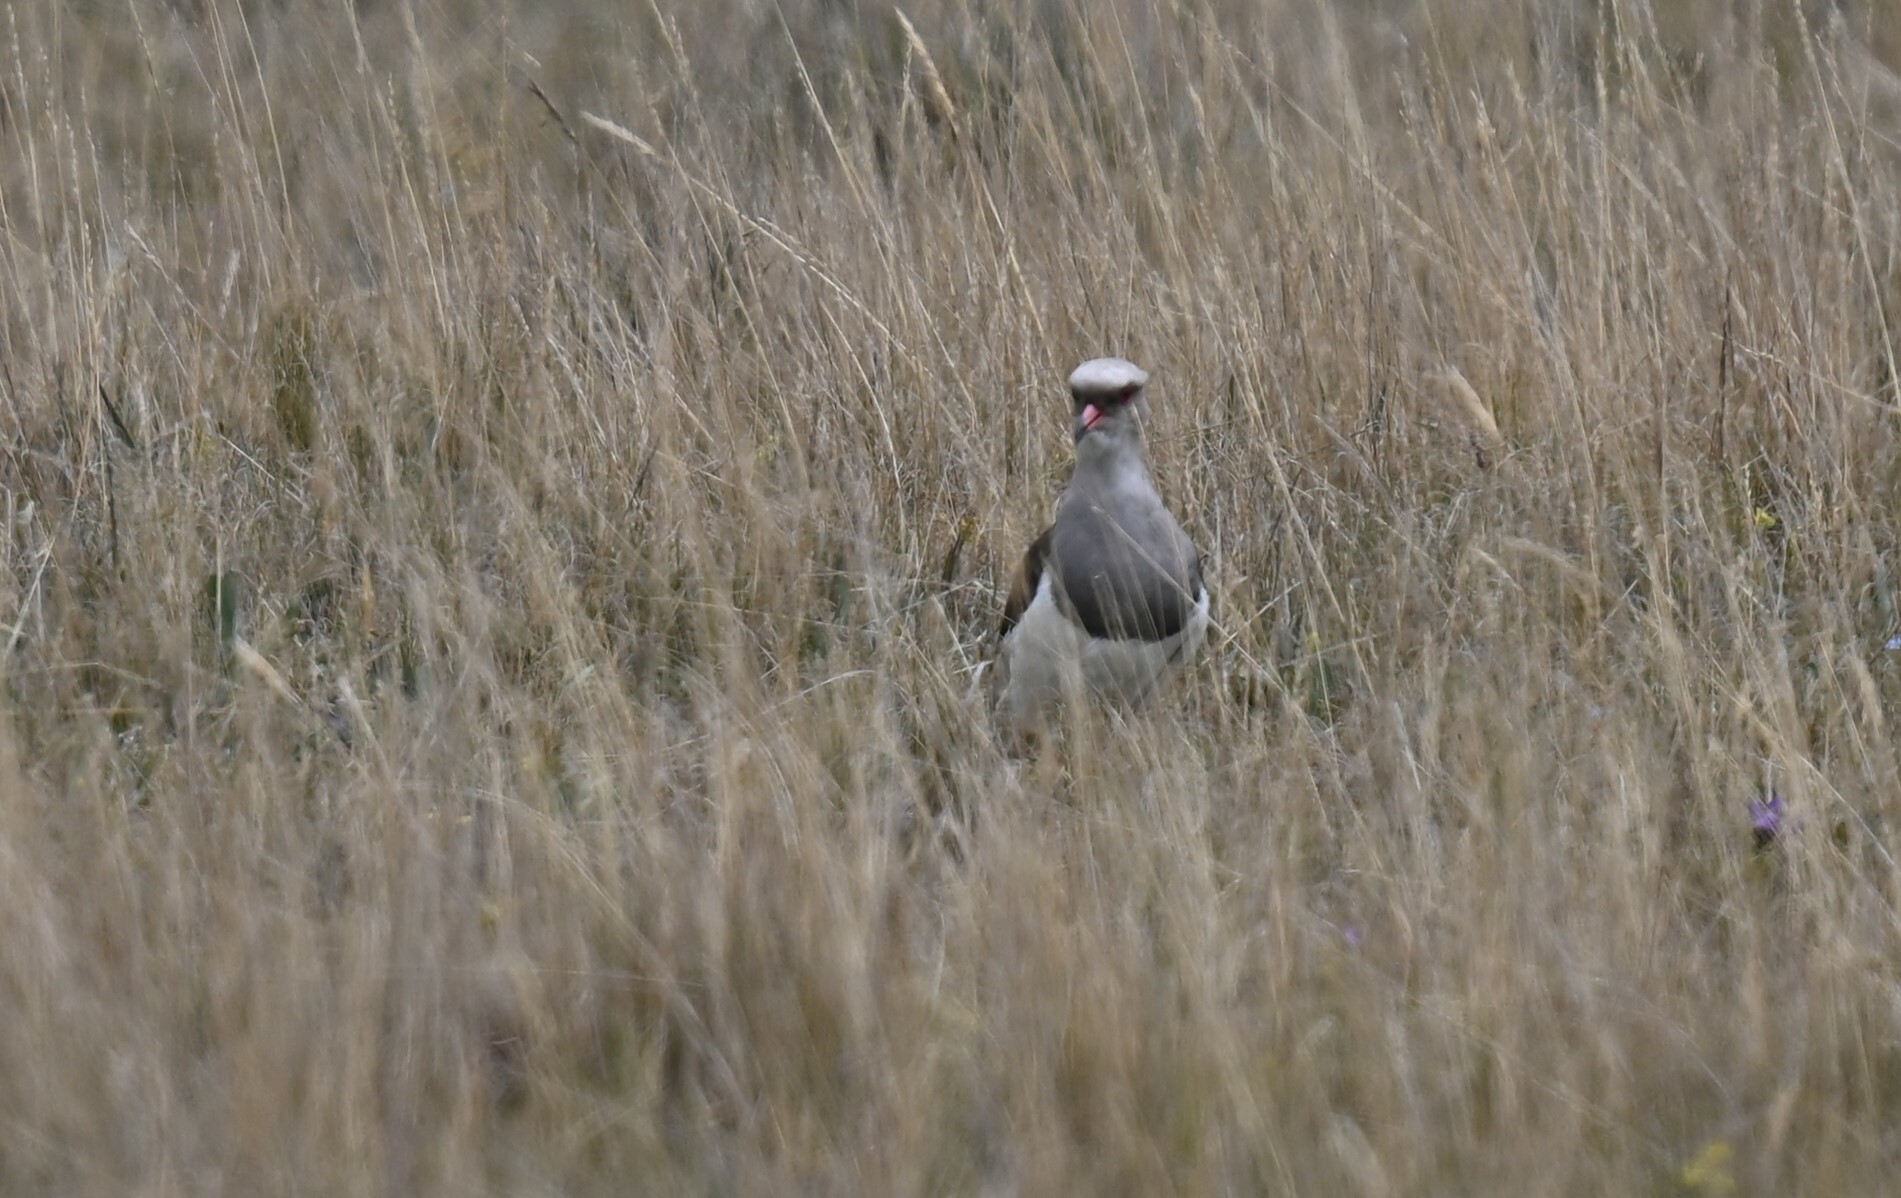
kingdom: Animalia
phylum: Chordata
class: Aves
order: Charadriiformes
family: Charadriidae
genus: Vanellus
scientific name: Vanellus resplendens
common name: Andean lapwing
